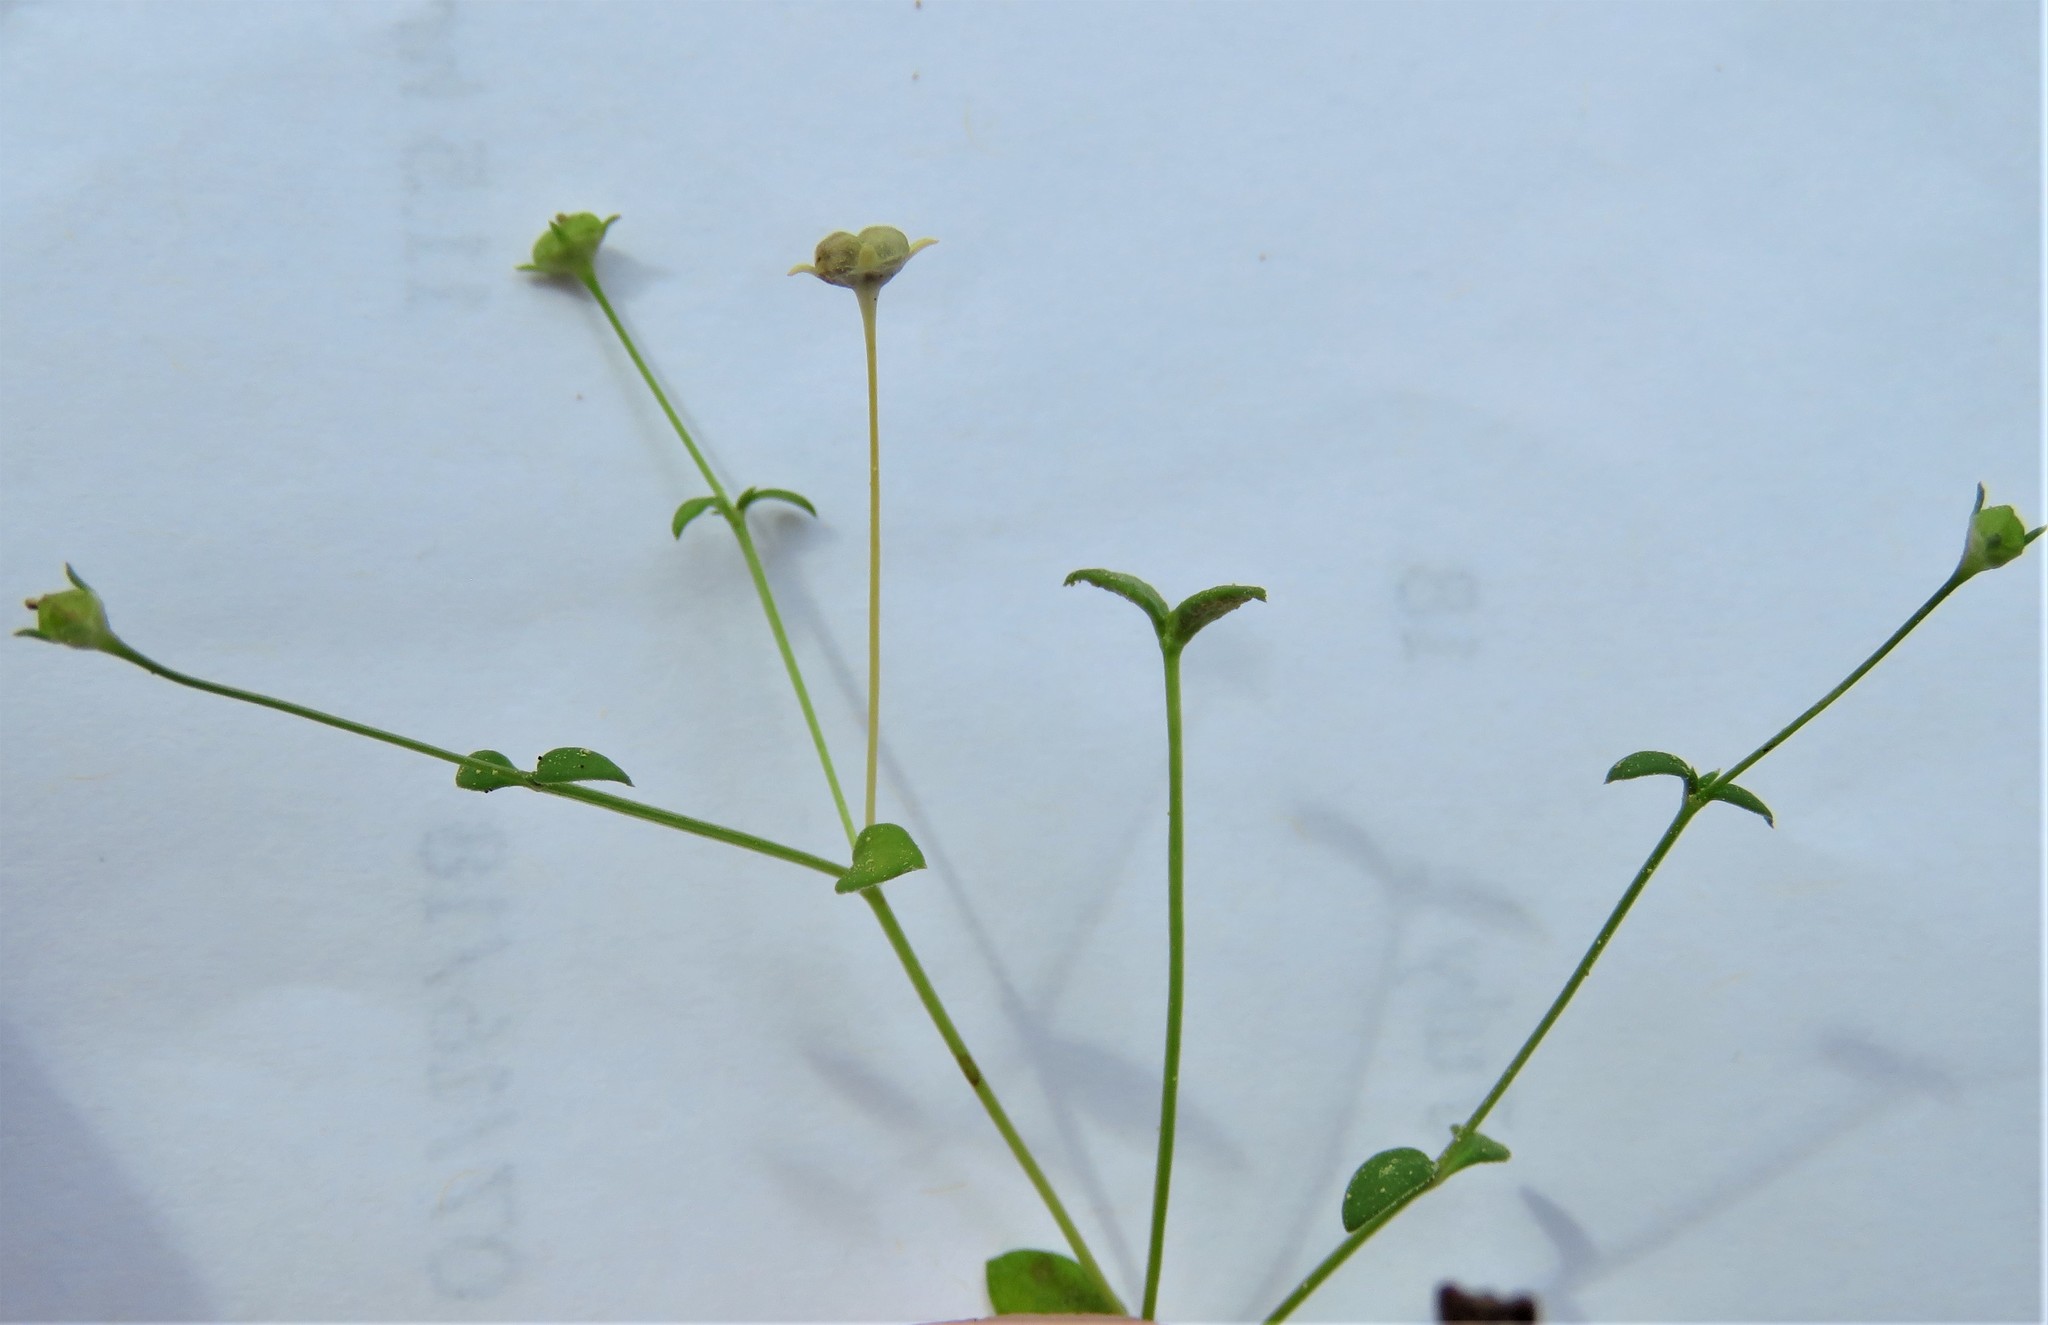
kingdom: Plantae
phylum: Tracheophyta
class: Magnoliopsida
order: Gentianales
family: Rubiaceae
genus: Houstonia
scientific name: Houstonia pusilla
